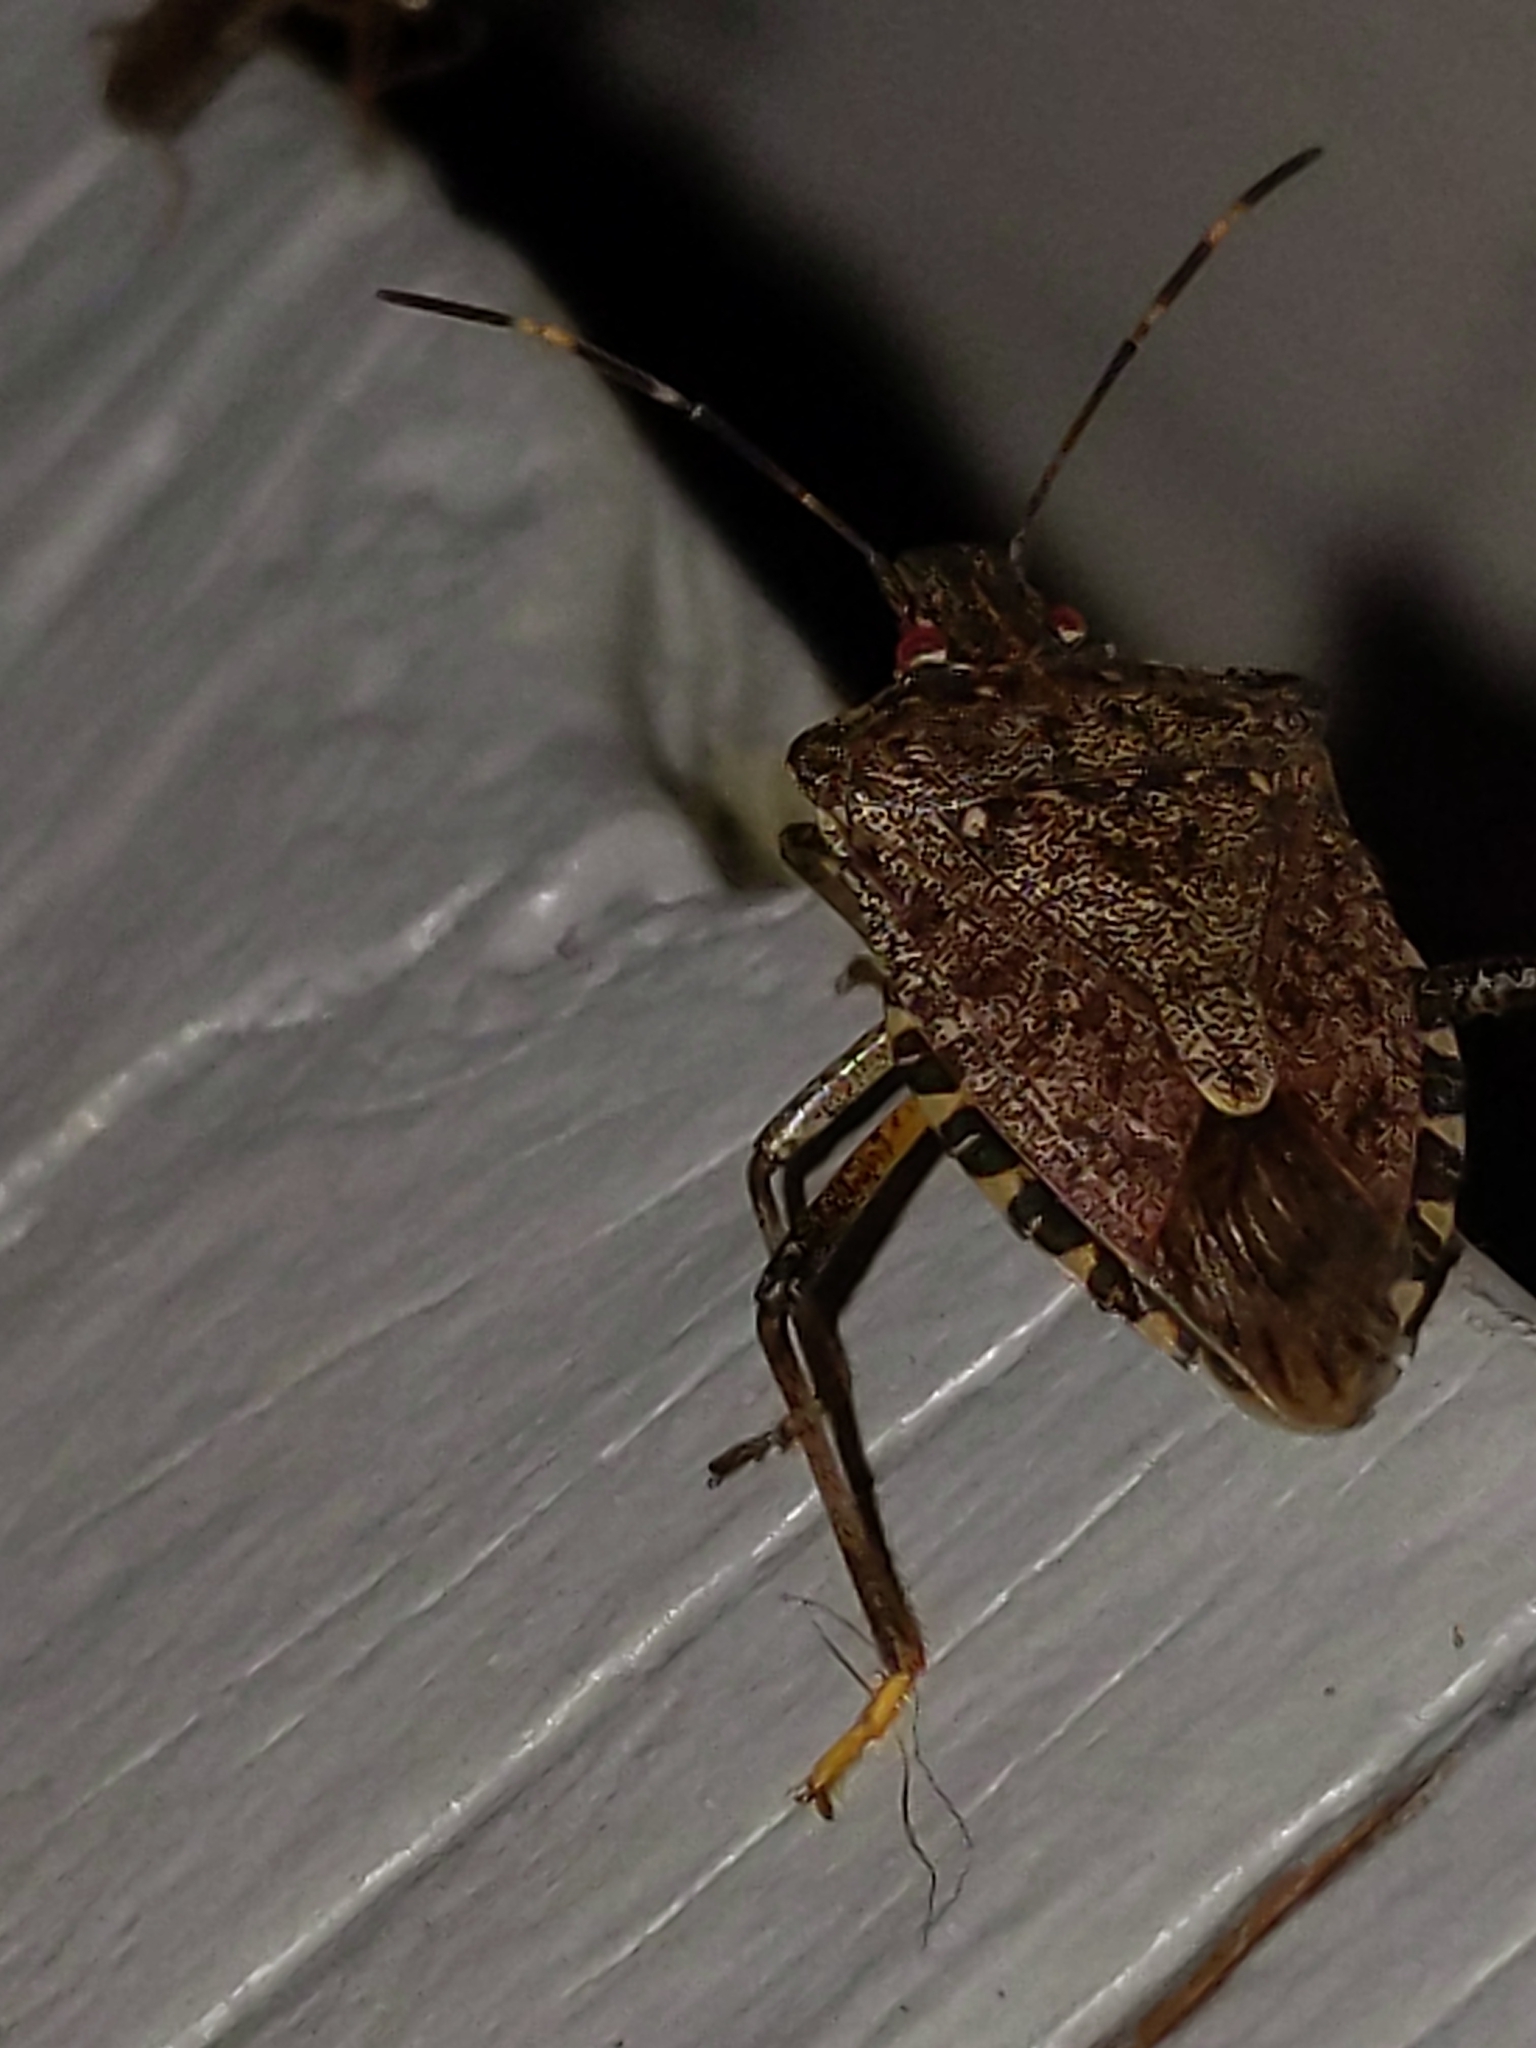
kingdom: Animalia
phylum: Arthropoda
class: Insecta
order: Hemiptera
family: Pentatomidae
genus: Halyomorpha
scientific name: Halyomorpha halys
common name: Brown marmorated stink bug
